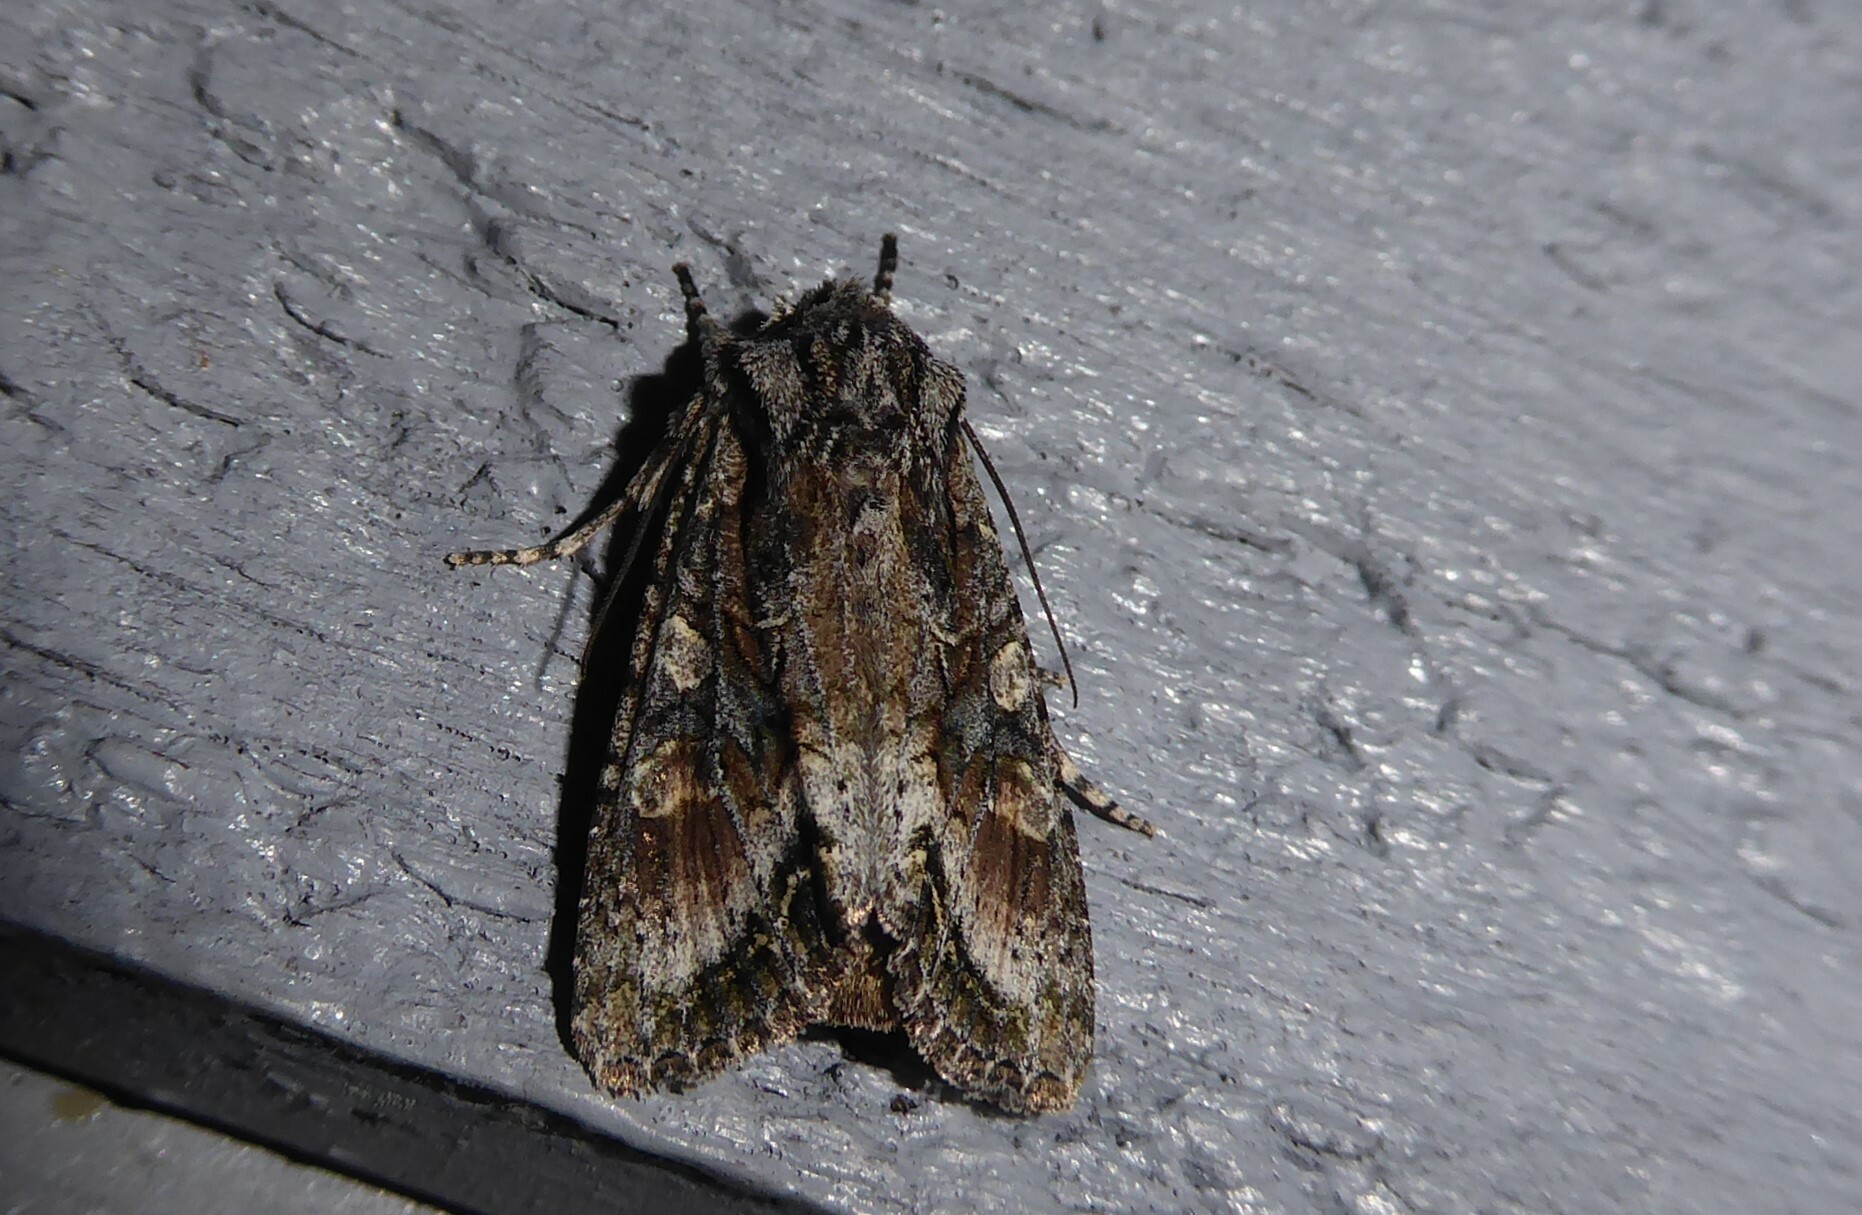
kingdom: Animalia
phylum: Arthropoda
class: Insecta
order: Lepidoptera
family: Noctuidae
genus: Ichneutica
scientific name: Ichneutica mutans
